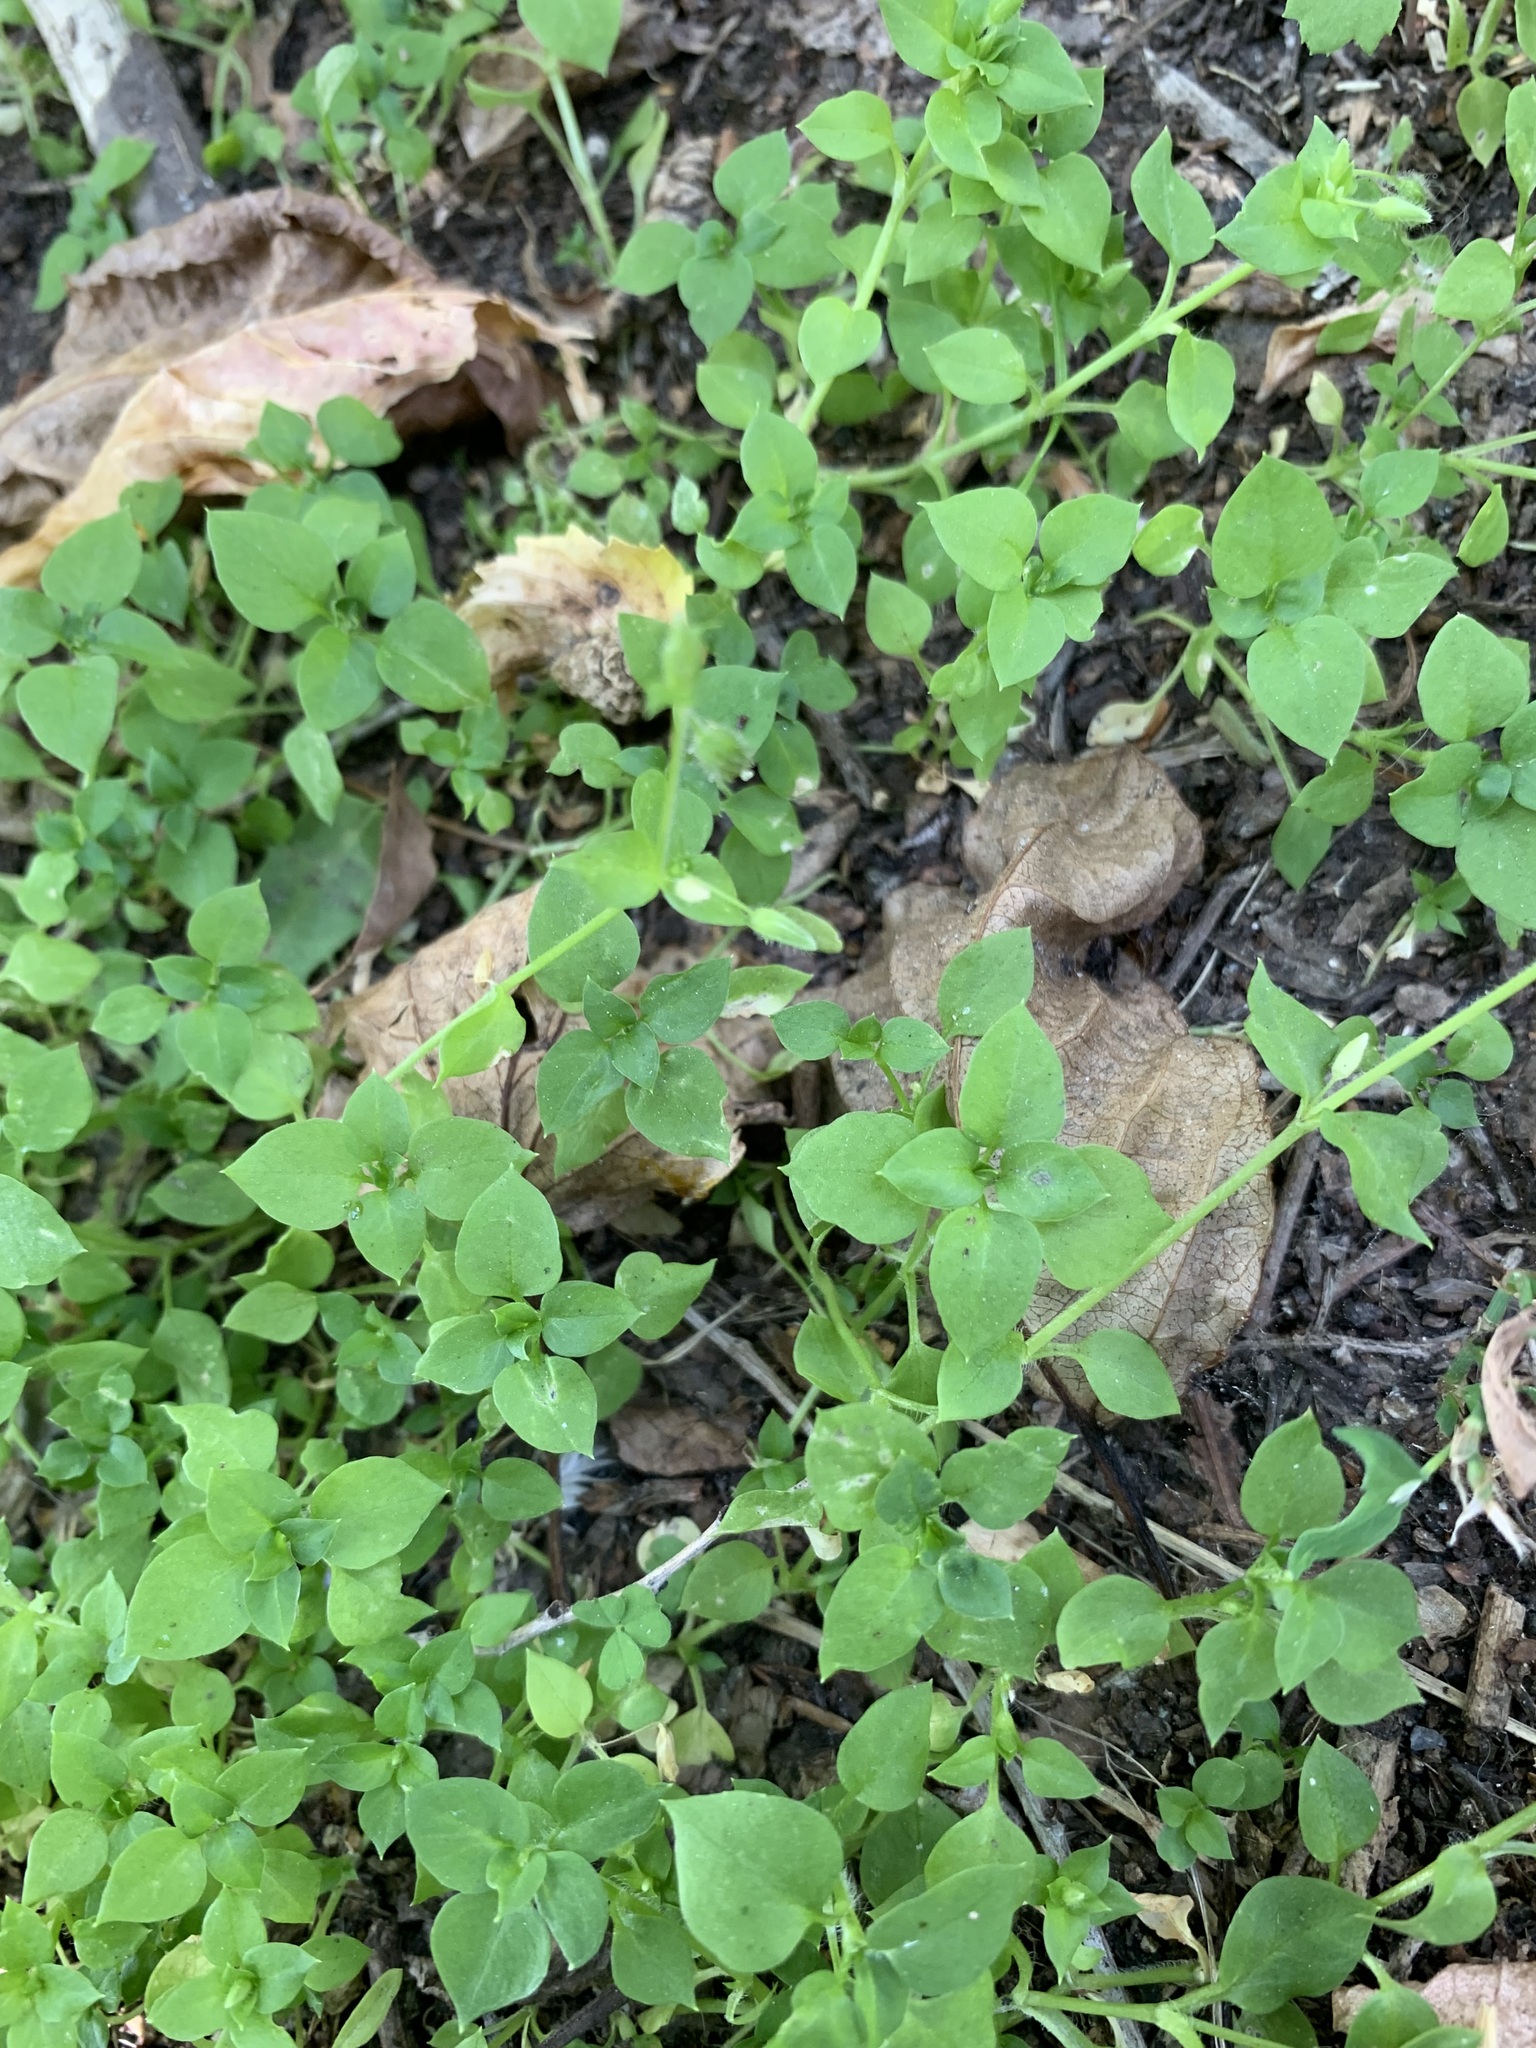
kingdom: Plantae
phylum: Tracheophyta
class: Magnoliopsida
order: Caryophyllales
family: Caryophyllaceae
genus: Stellaria
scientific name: Stellaria media
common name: Common chickweed
